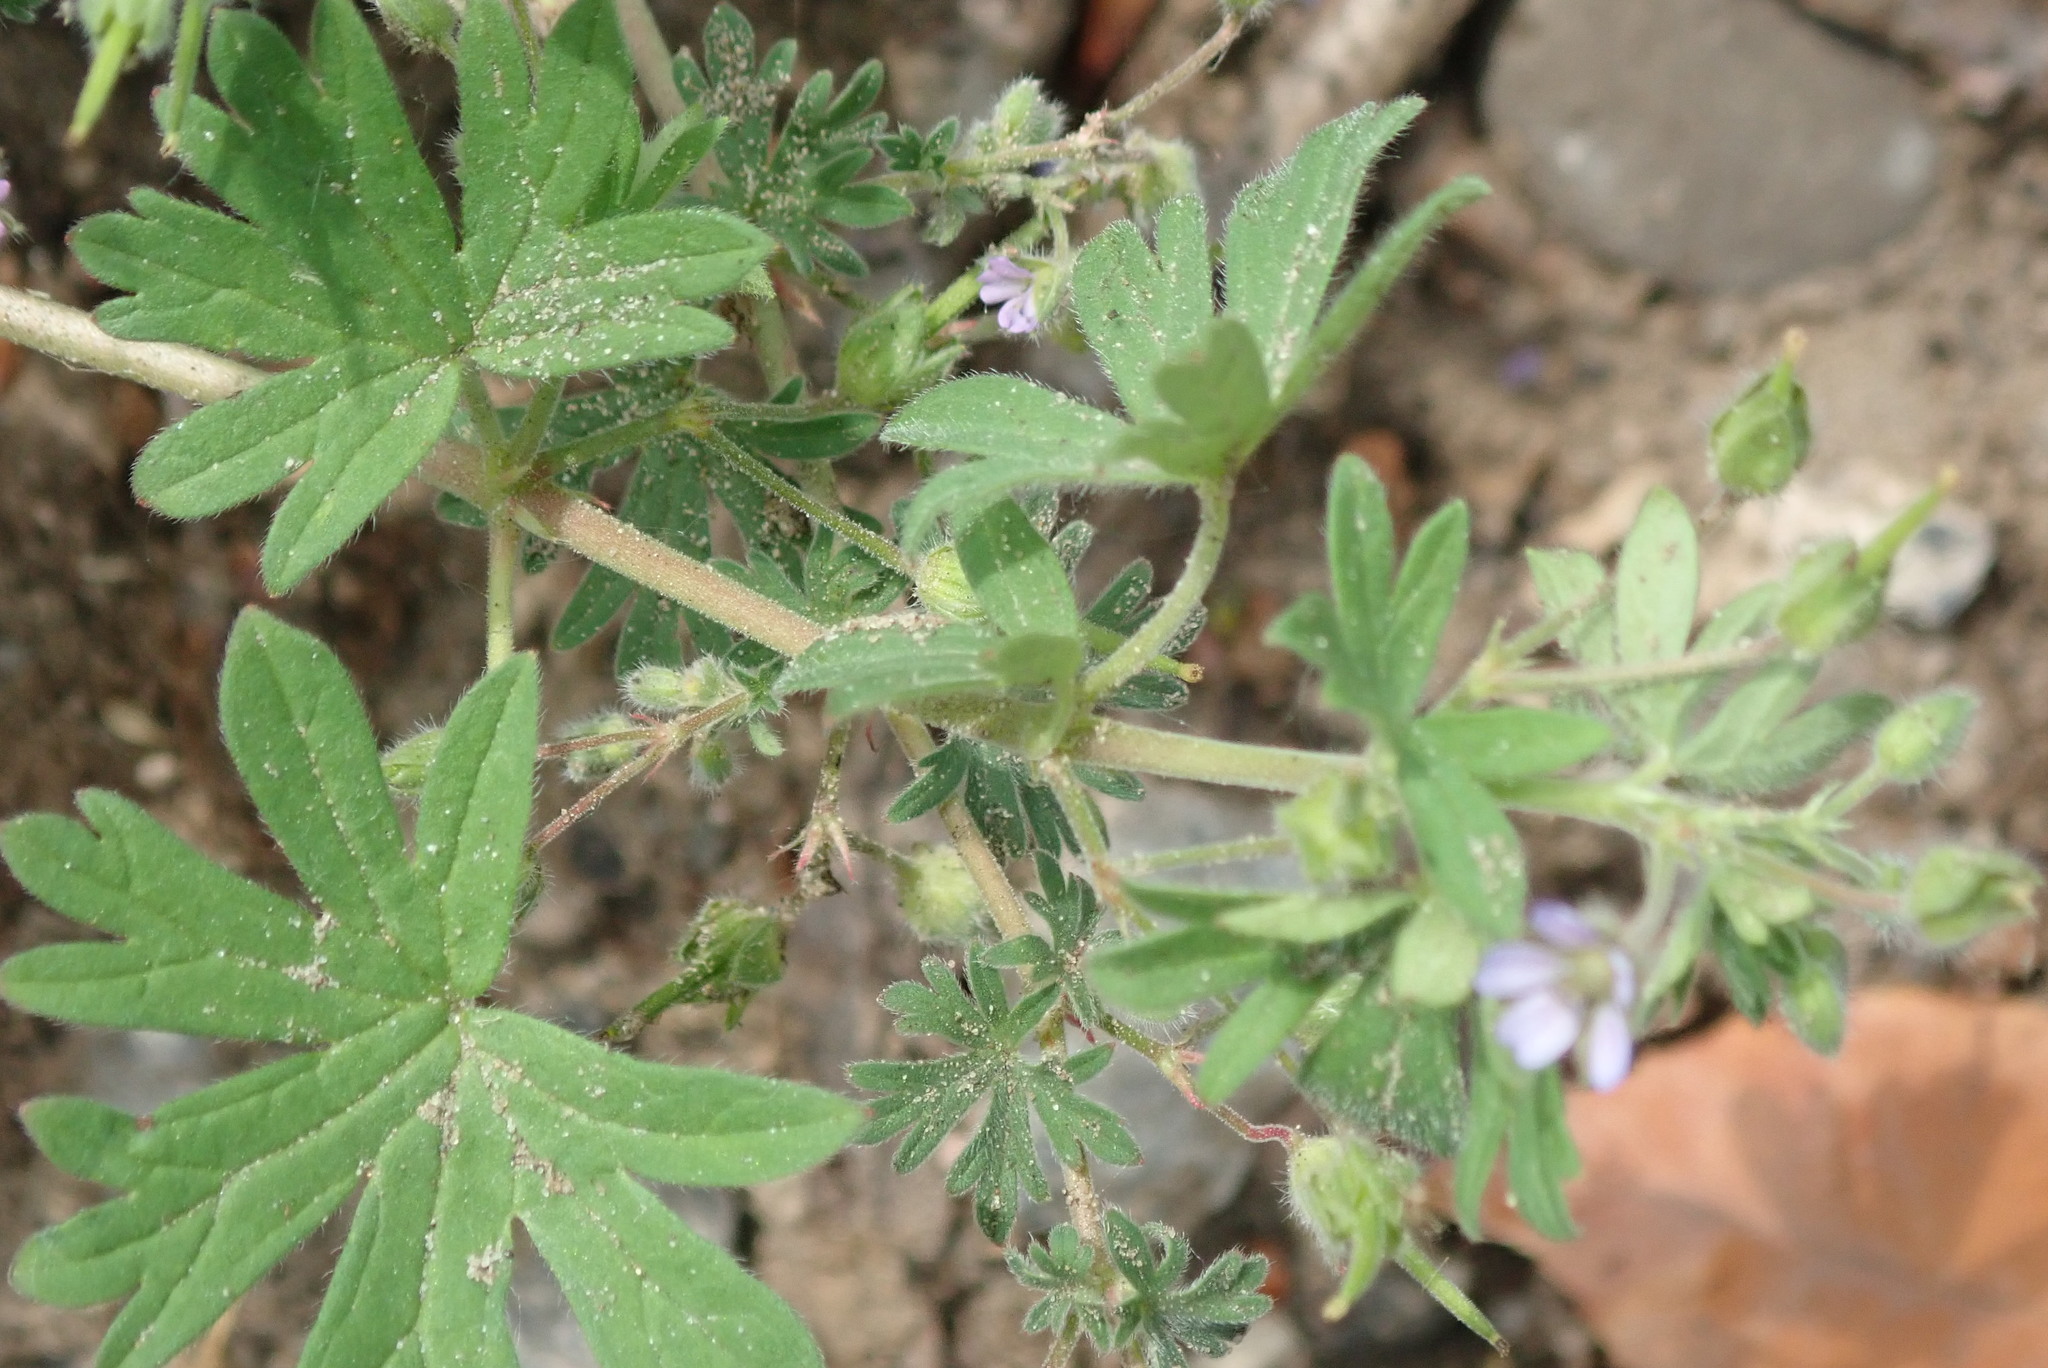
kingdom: Plantae
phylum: Tracheophyta
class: Magnoliopsida
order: Geraniales
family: Geraniaceae
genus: Geranium
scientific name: Geranium pusillum
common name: Small geranium
